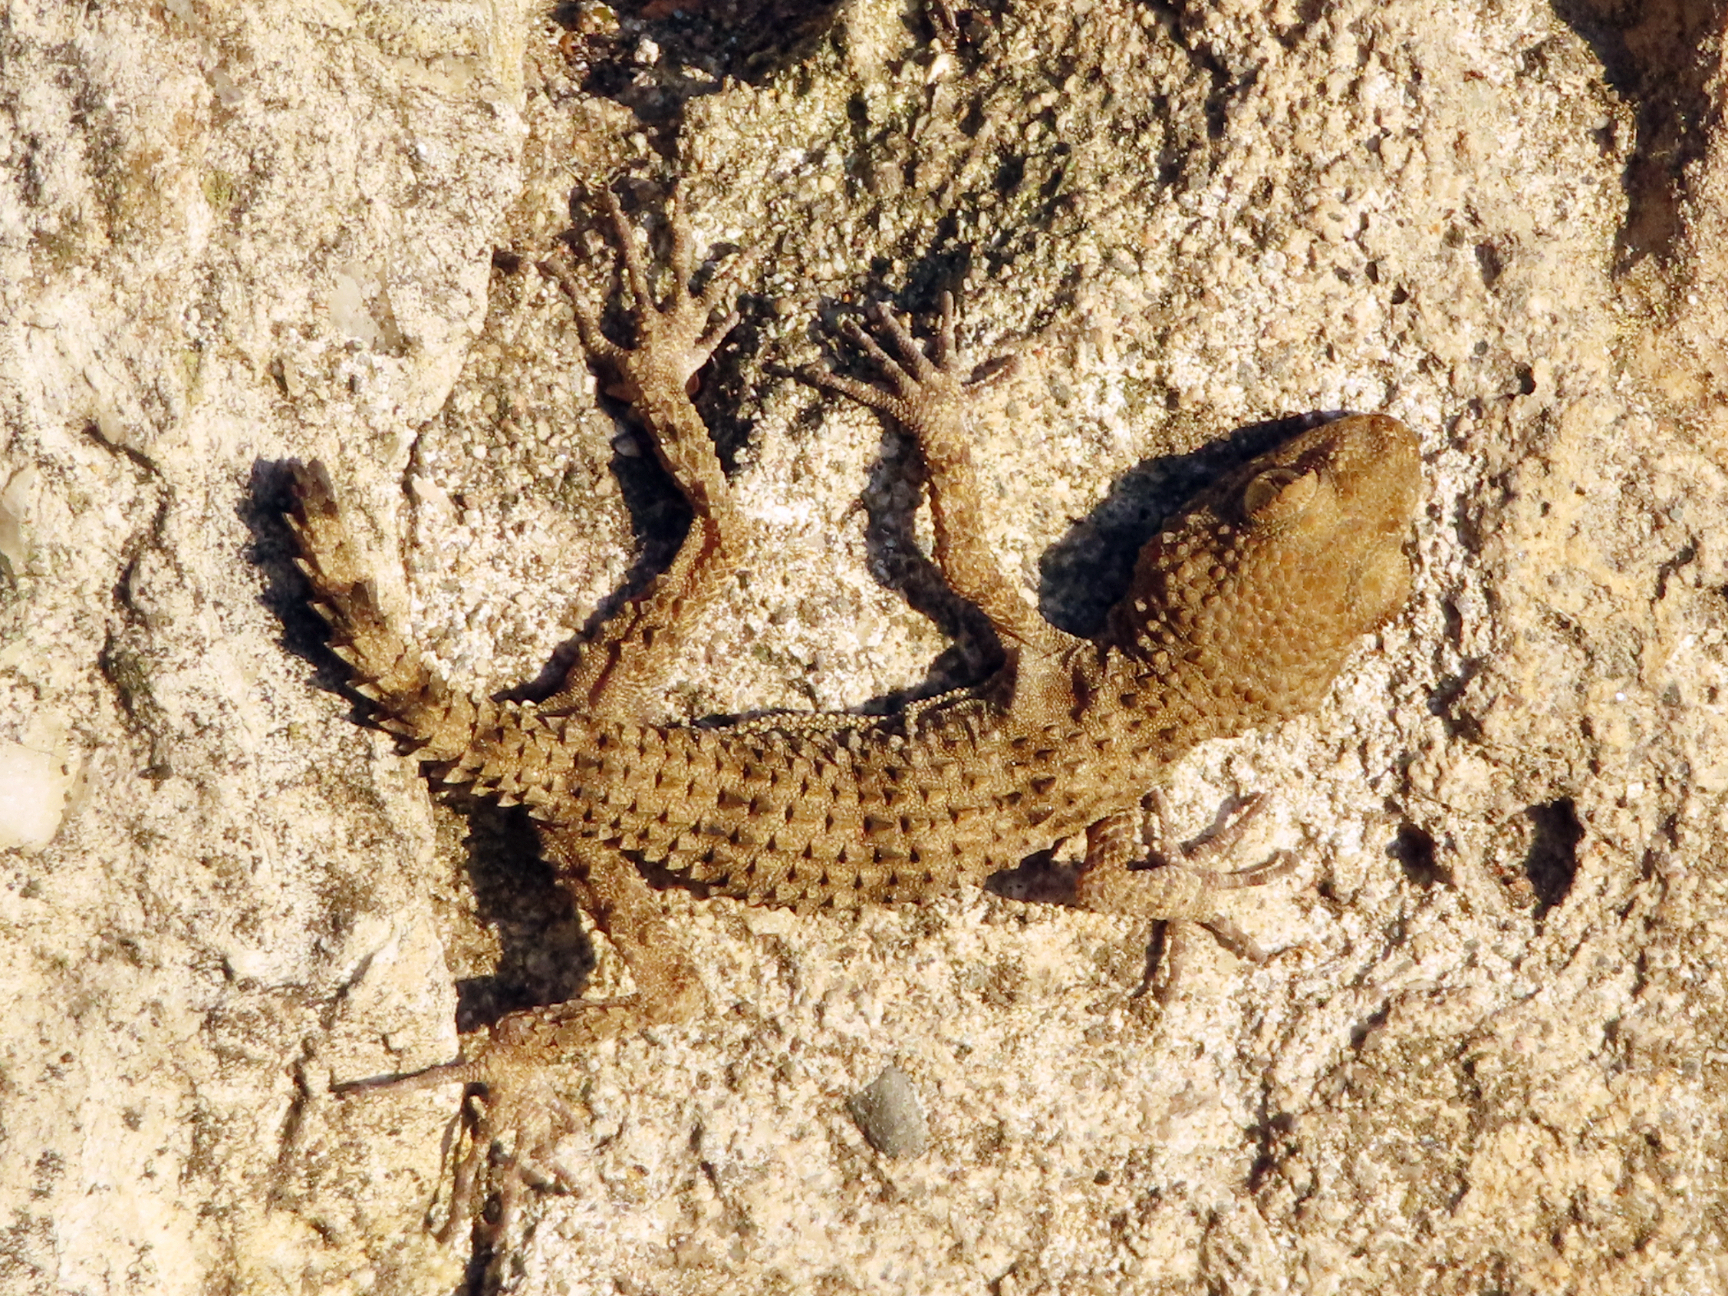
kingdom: Animalia
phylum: Chordata
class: Squamata
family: Gekkonidae
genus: Tenuidactylus
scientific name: Tenuidactylus caspius
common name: Caspian bent-toed gecko
